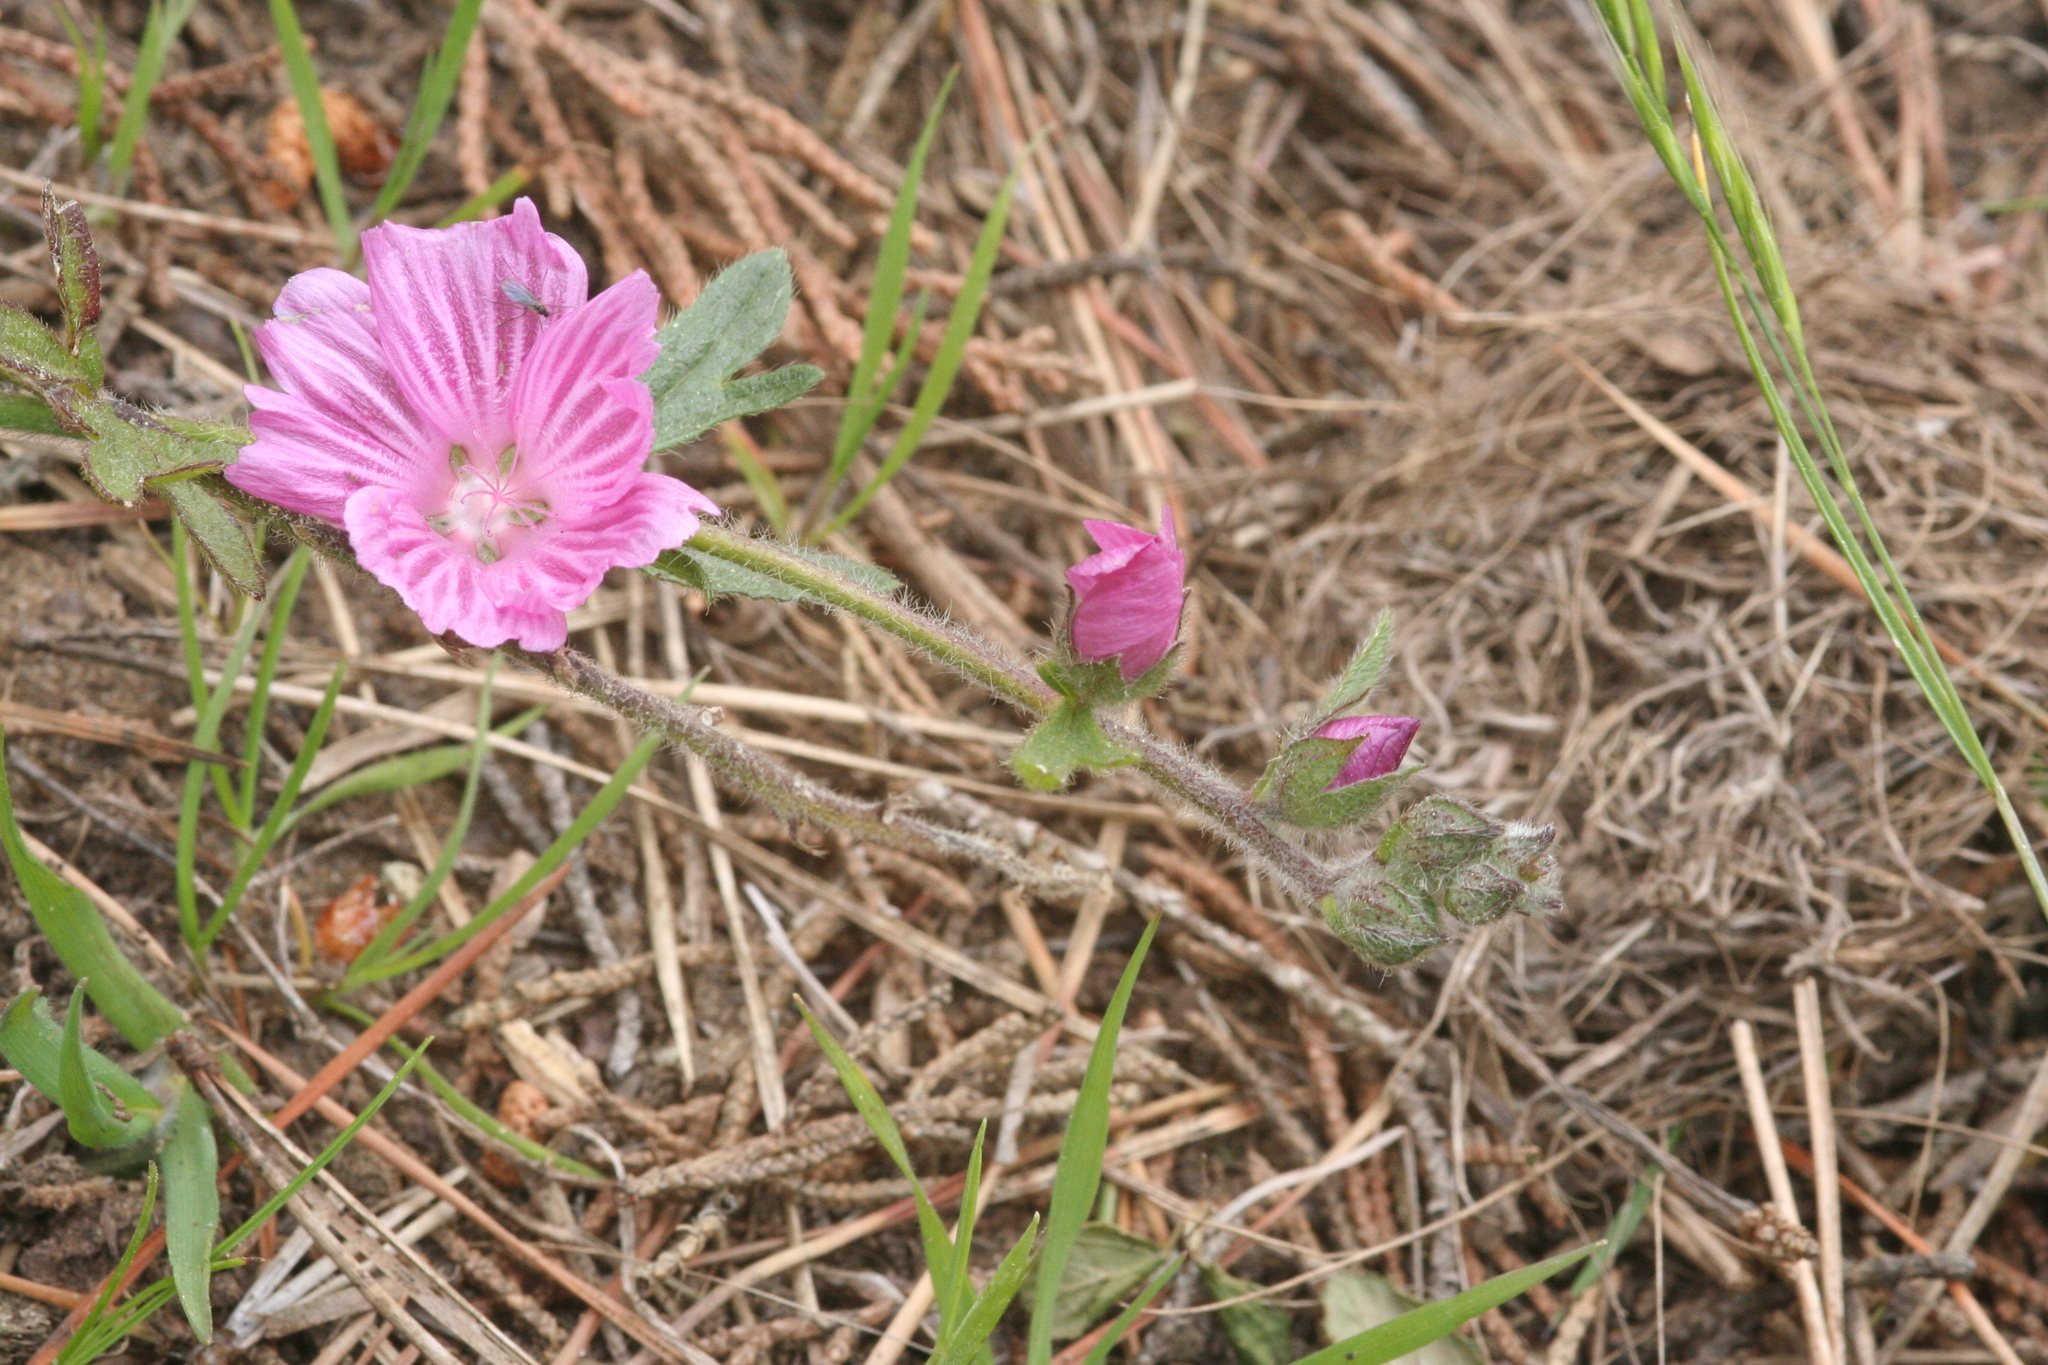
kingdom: Plantae
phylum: Tracheophyta
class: Magnoliopsida
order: Malvales
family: Malvaceae
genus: Sidalcea
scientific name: Sidalcea malviflora
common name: Greek mallow
